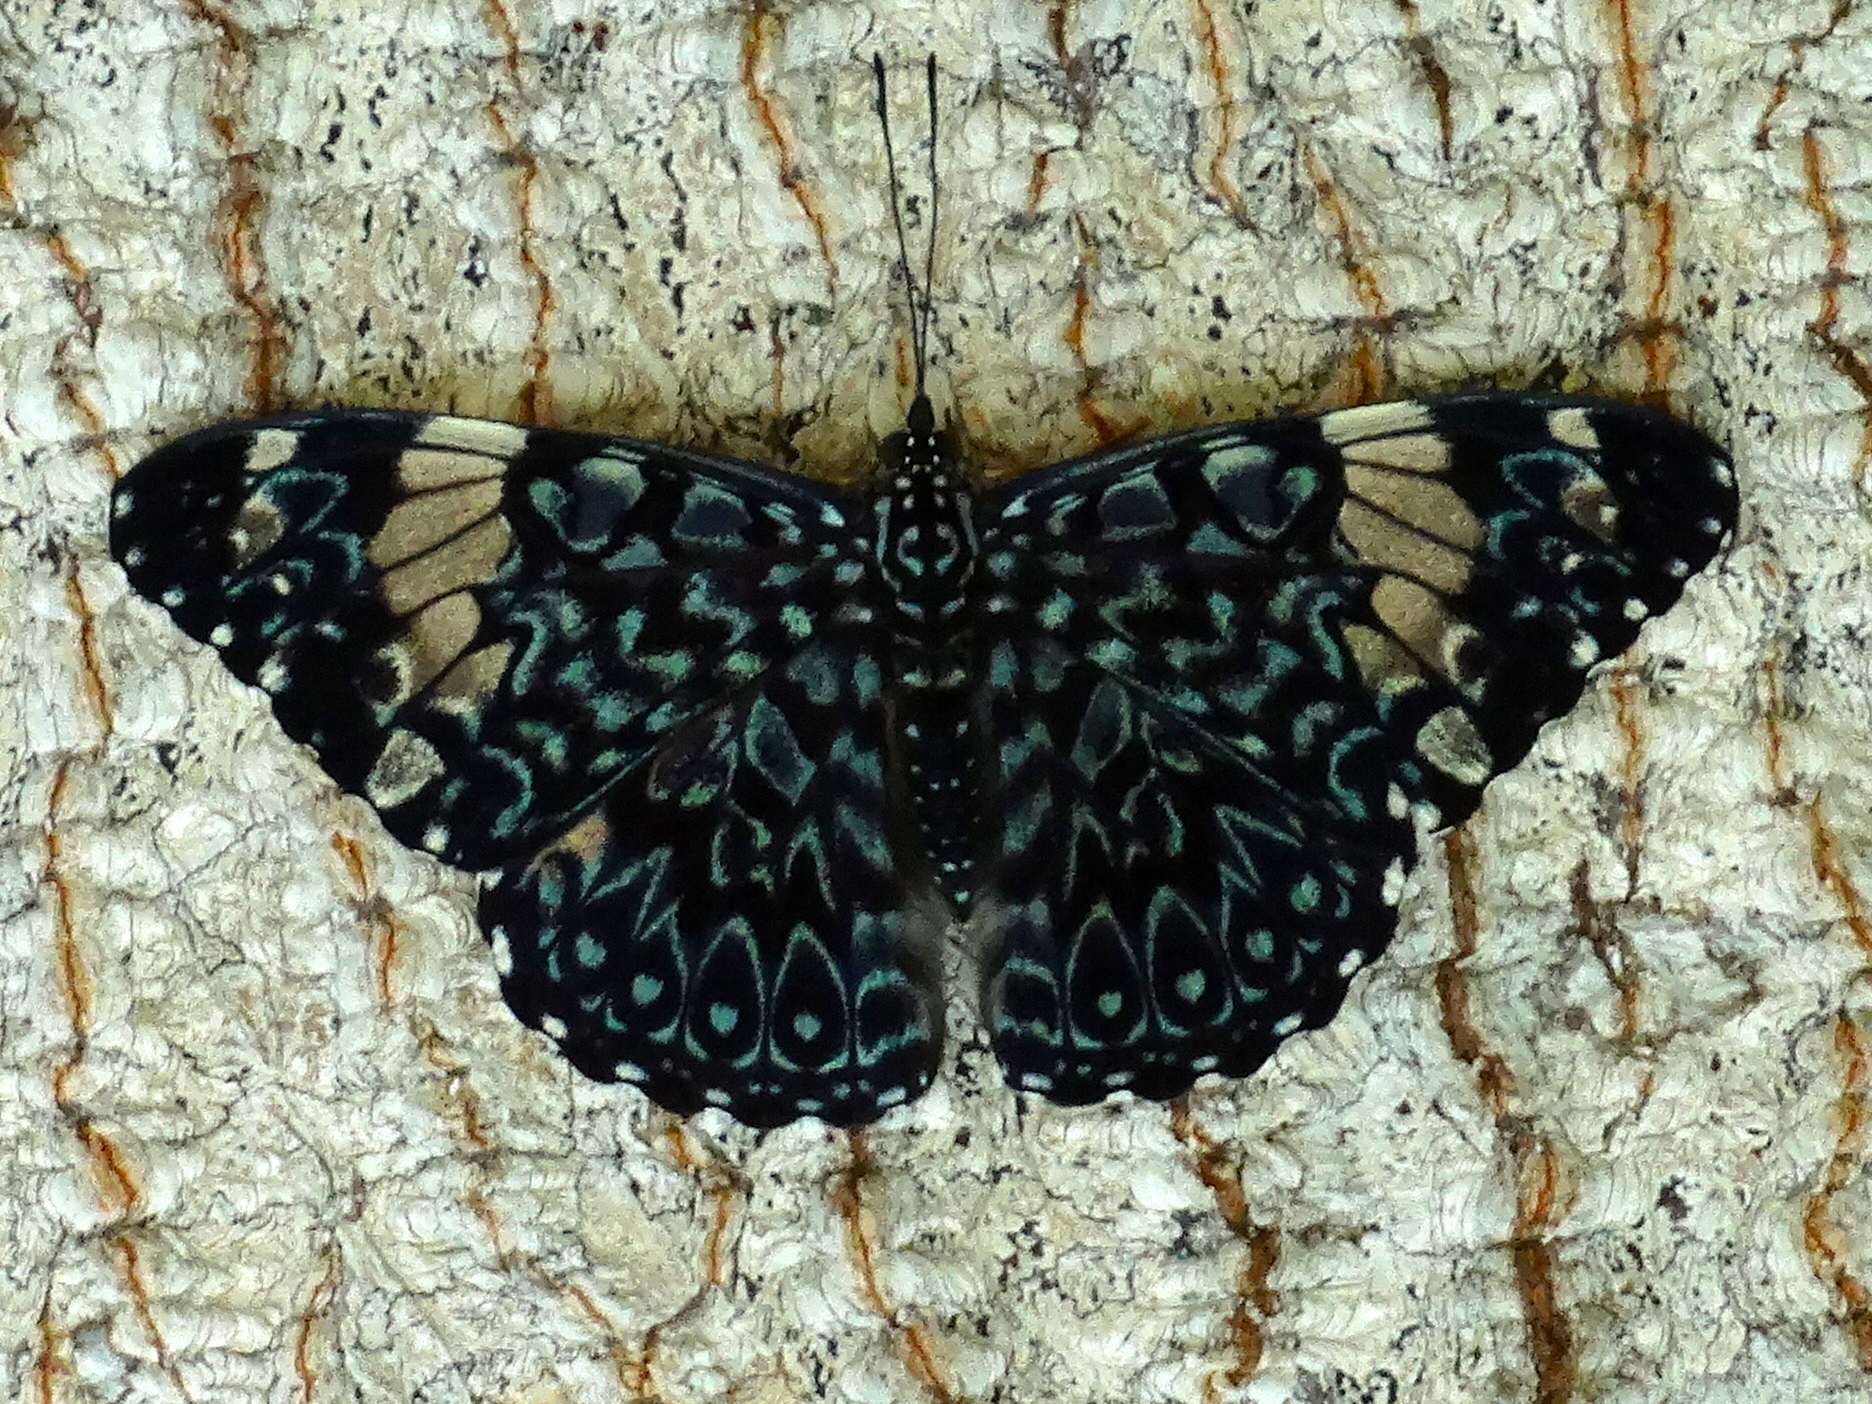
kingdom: Animalia
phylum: Arthropoda
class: Insecta
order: Lepidoptera
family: Nymphalidae
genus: Hamadryas
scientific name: Hamadryas amphinome
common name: Red cracker
